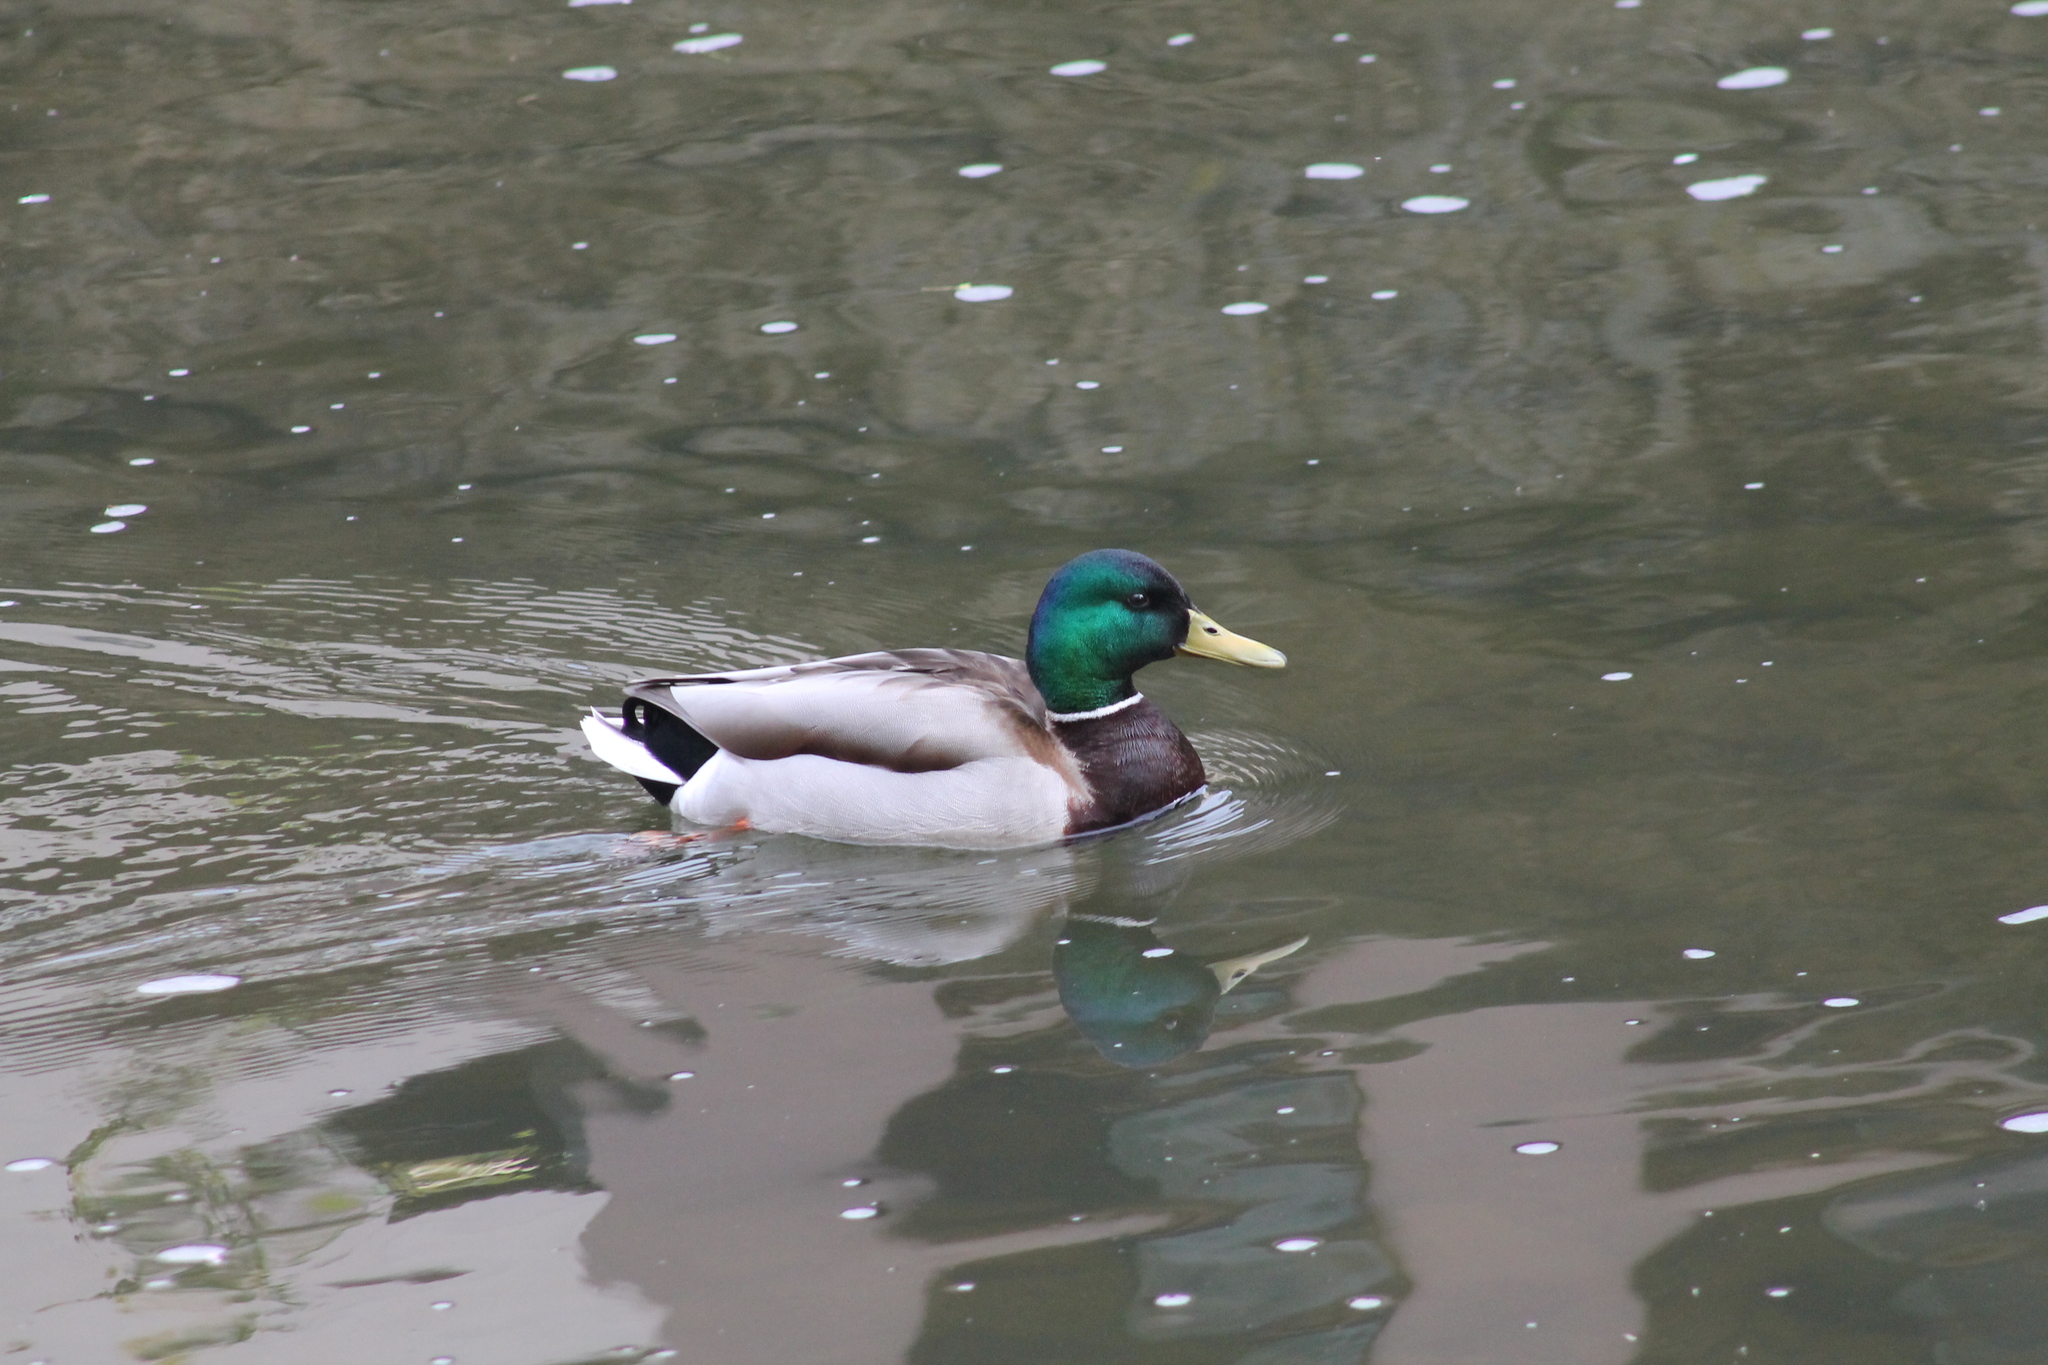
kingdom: Animalia
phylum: Chordata
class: Aves
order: Anseriformes
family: Anatidae
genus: Anas
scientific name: Anas platyrhynchos
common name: Mallard
